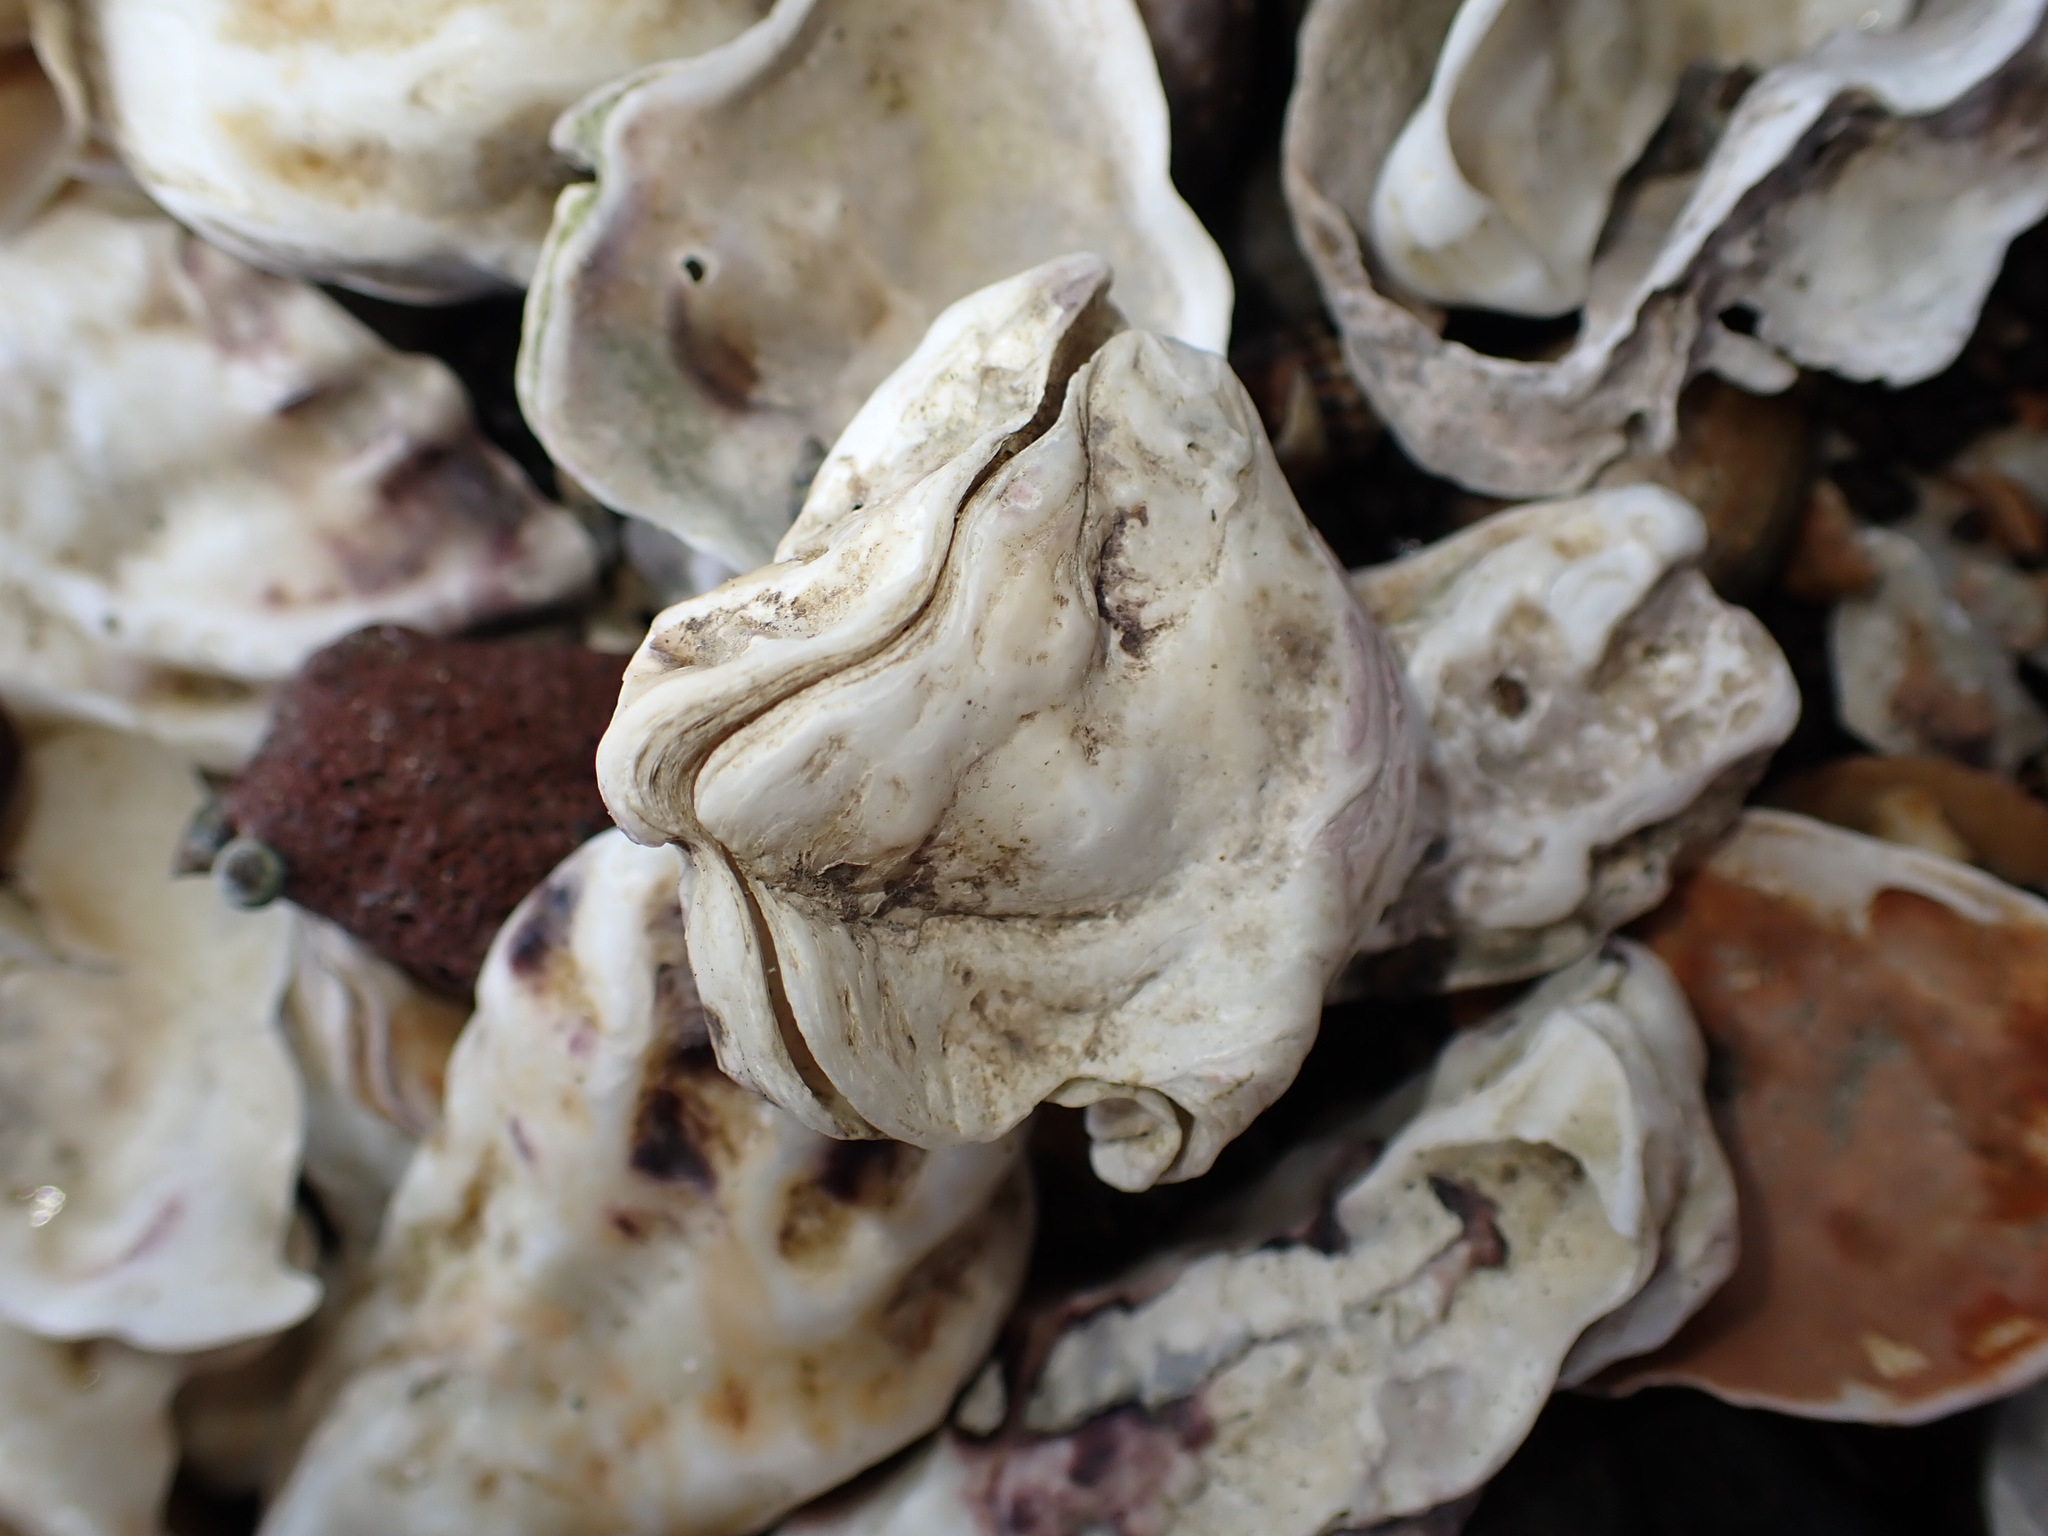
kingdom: Animalia
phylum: Mollusca
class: Bivalvia
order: Ostreida
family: Ostreidae
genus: Magallana
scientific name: Magallana gigas
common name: Pacific oyster
